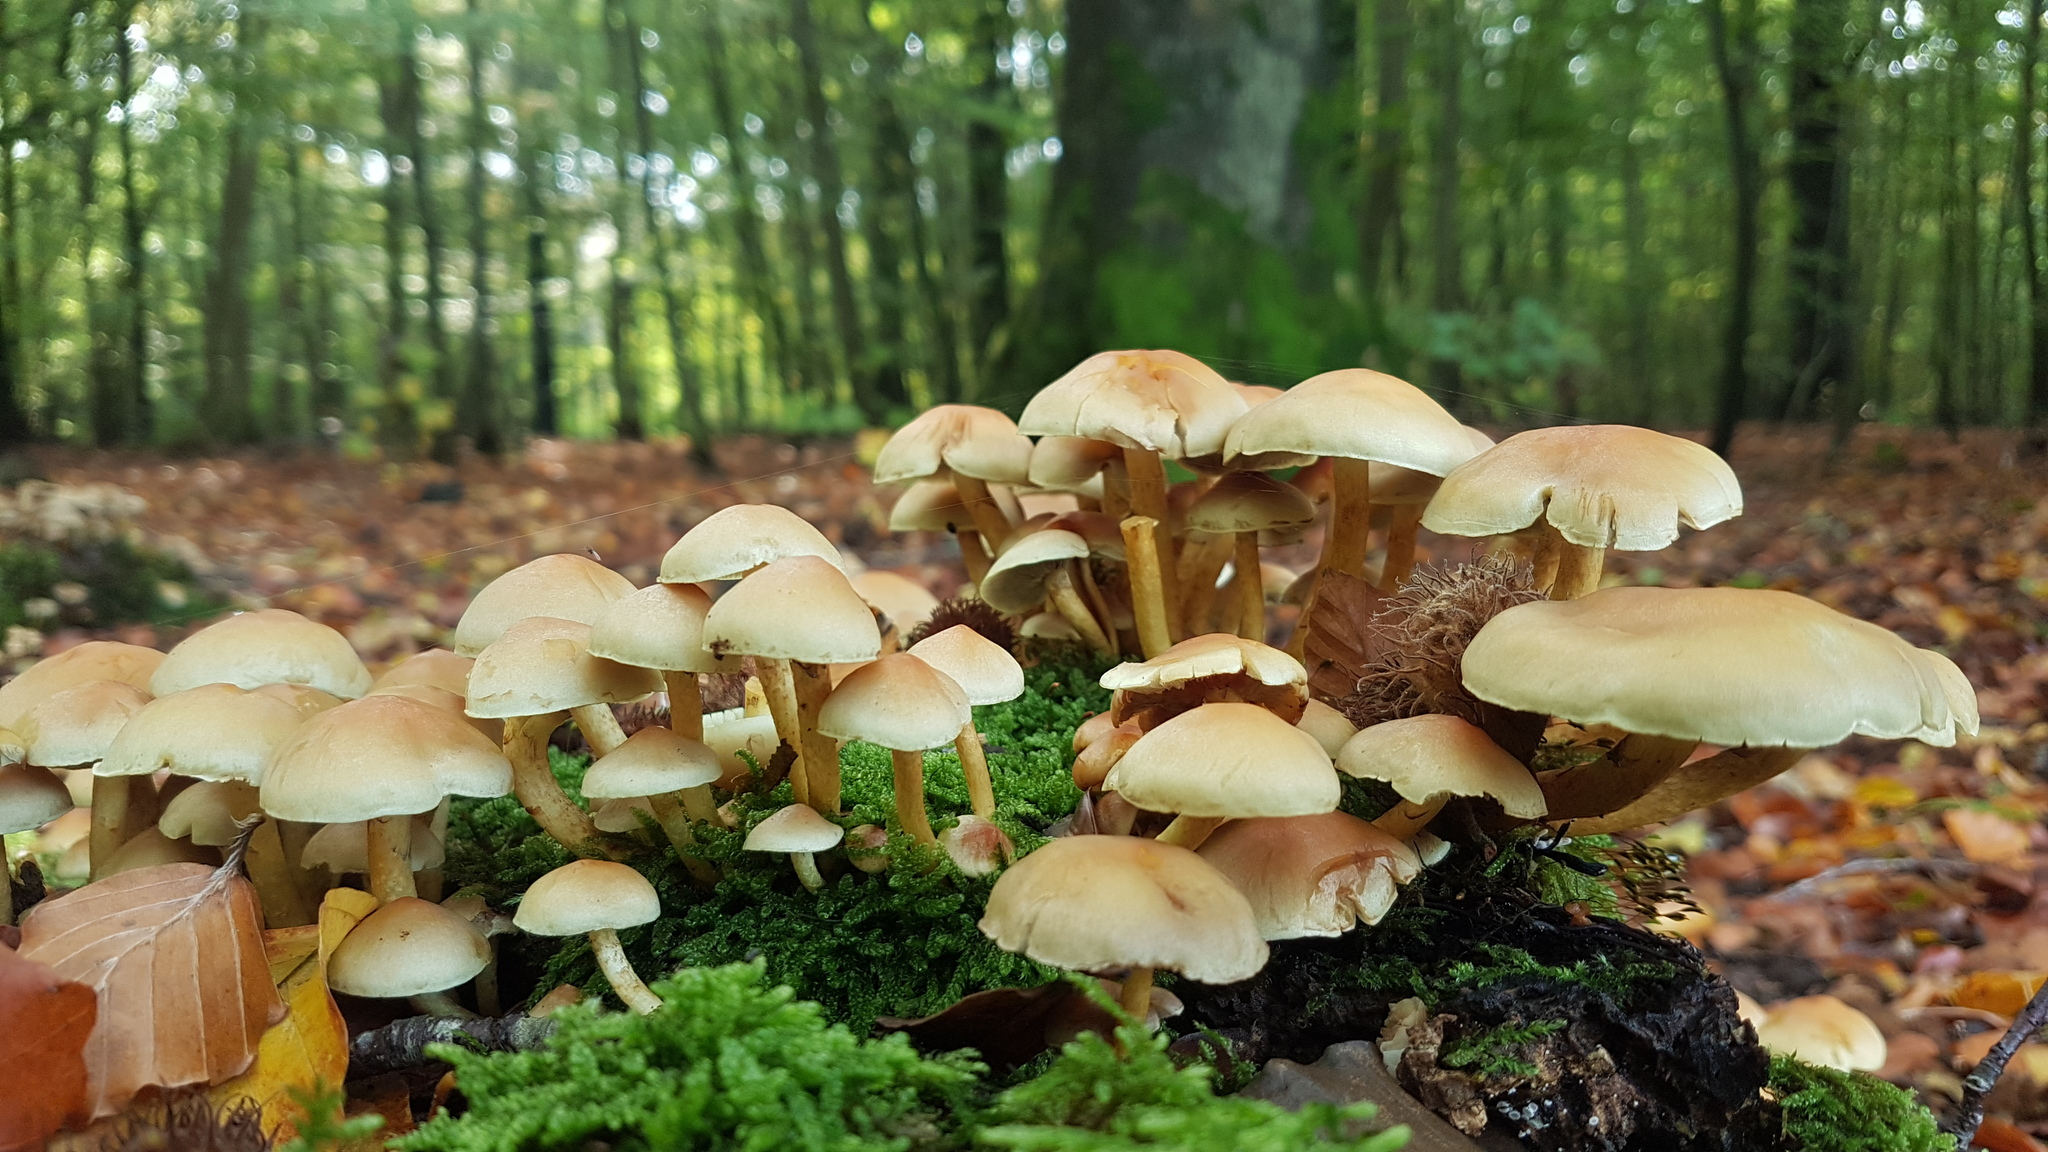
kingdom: Fungi
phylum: Basidiomycota
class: Agaricomycetes
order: Agaricales
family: Strophariaceae
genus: Hypholoma
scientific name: Hypholoma fasciculare
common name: Sulphur tuft
